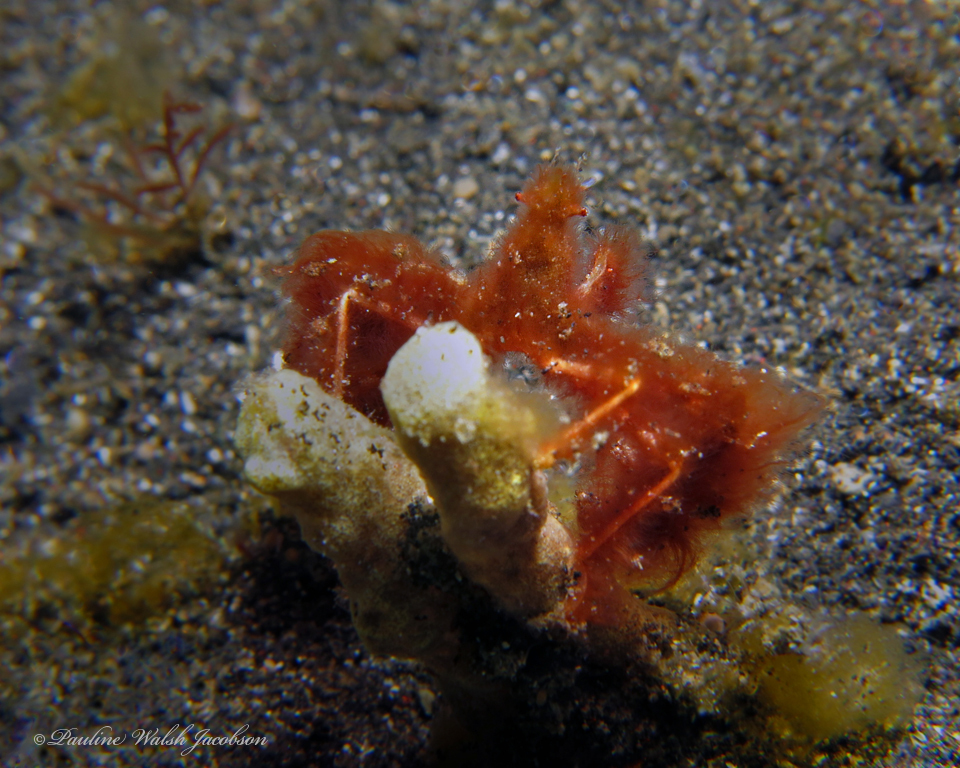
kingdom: Animalia
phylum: Arthropoda
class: Malacostraca
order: Decapoda
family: Inachidae
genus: Achaeus
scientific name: Achaeus japonicus
